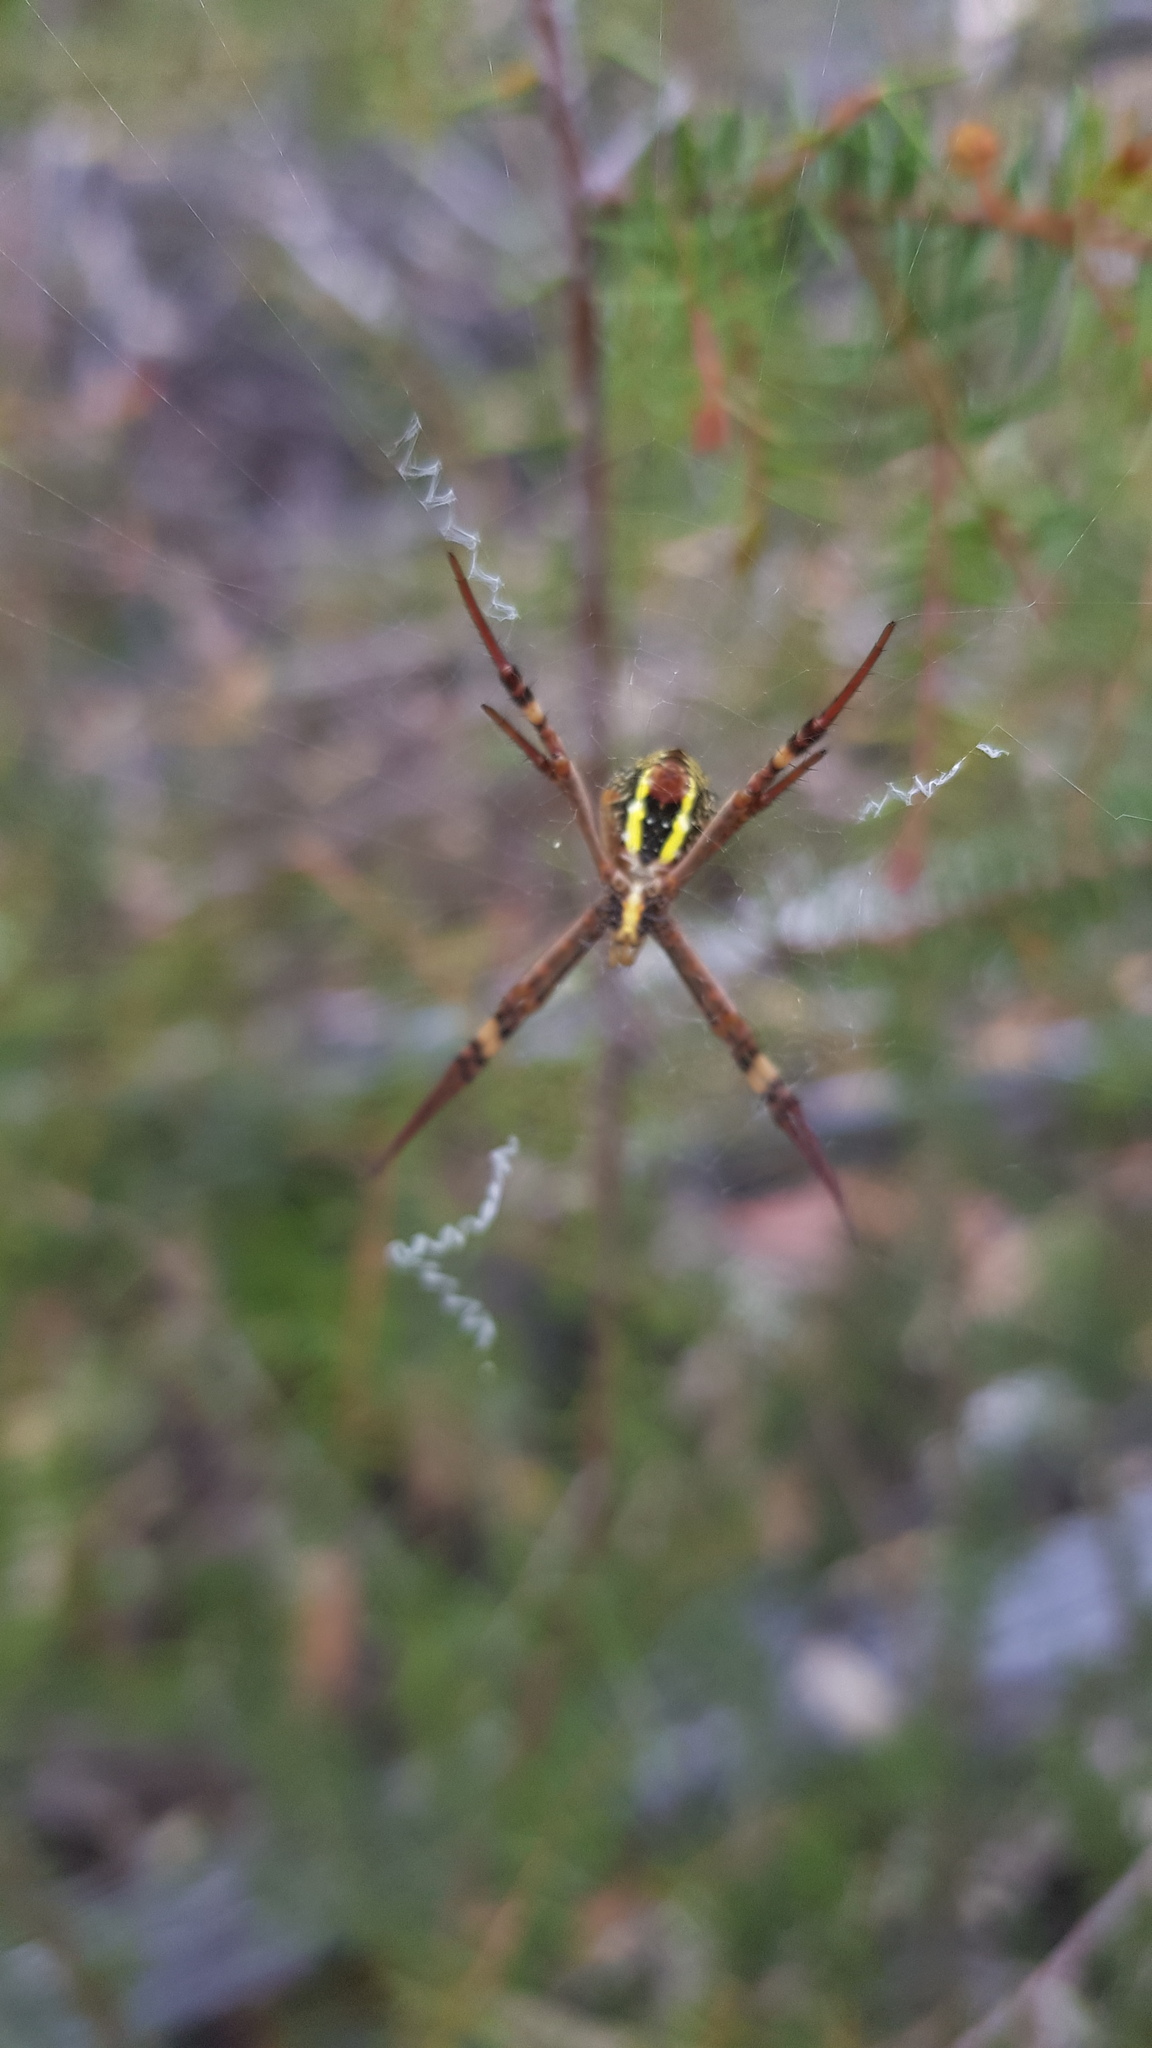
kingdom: Animalia
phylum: Arthropoda
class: Arachnida
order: Araneae
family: Araneidae
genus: Argiope
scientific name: Argiope keyserlingi
